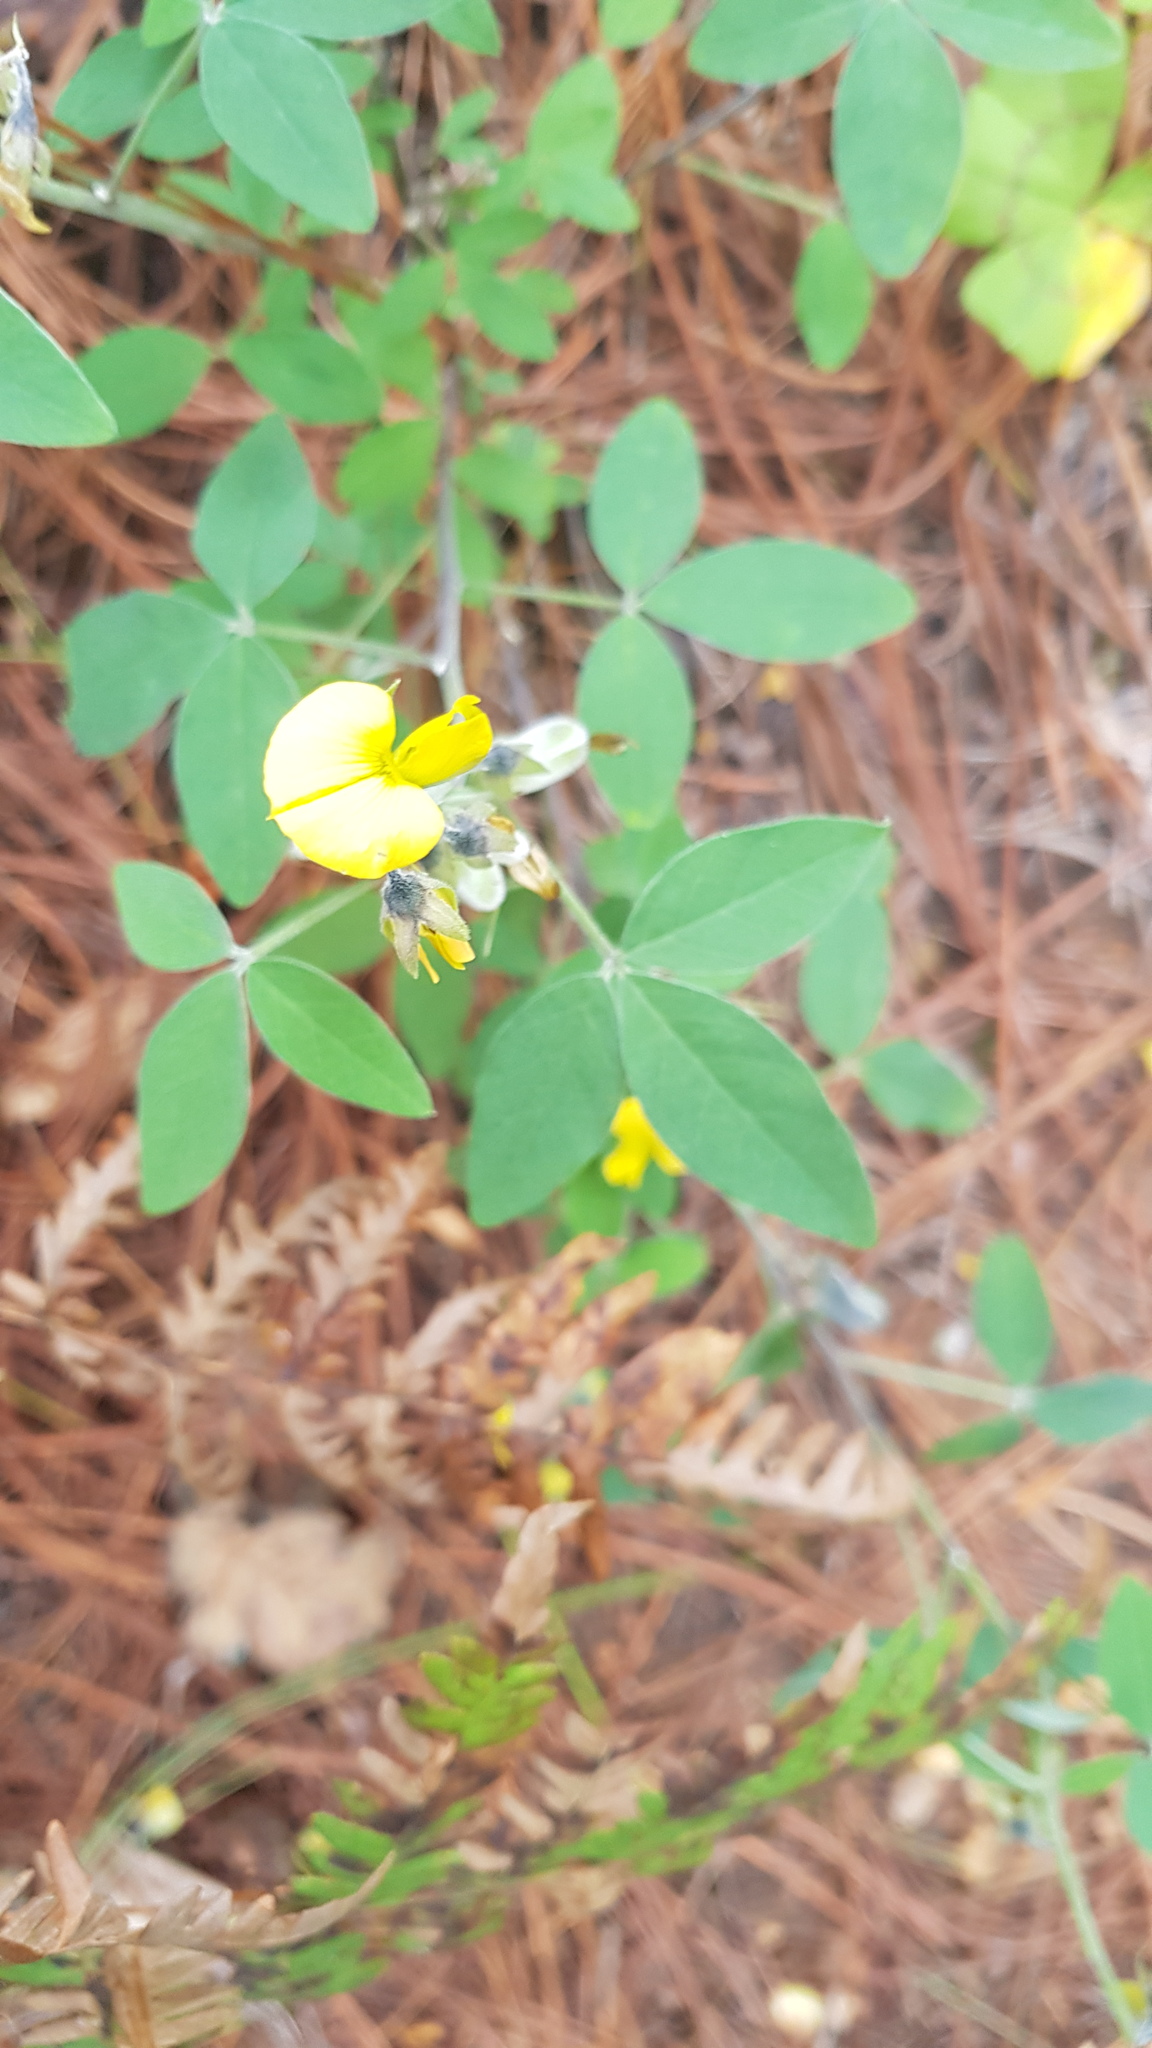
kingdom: Plantae
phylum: Tracheophyta
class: Magnoliopsida
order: Fabales
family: Fabaceae
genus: Crotalaria
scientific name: Crotalaria mollicula
